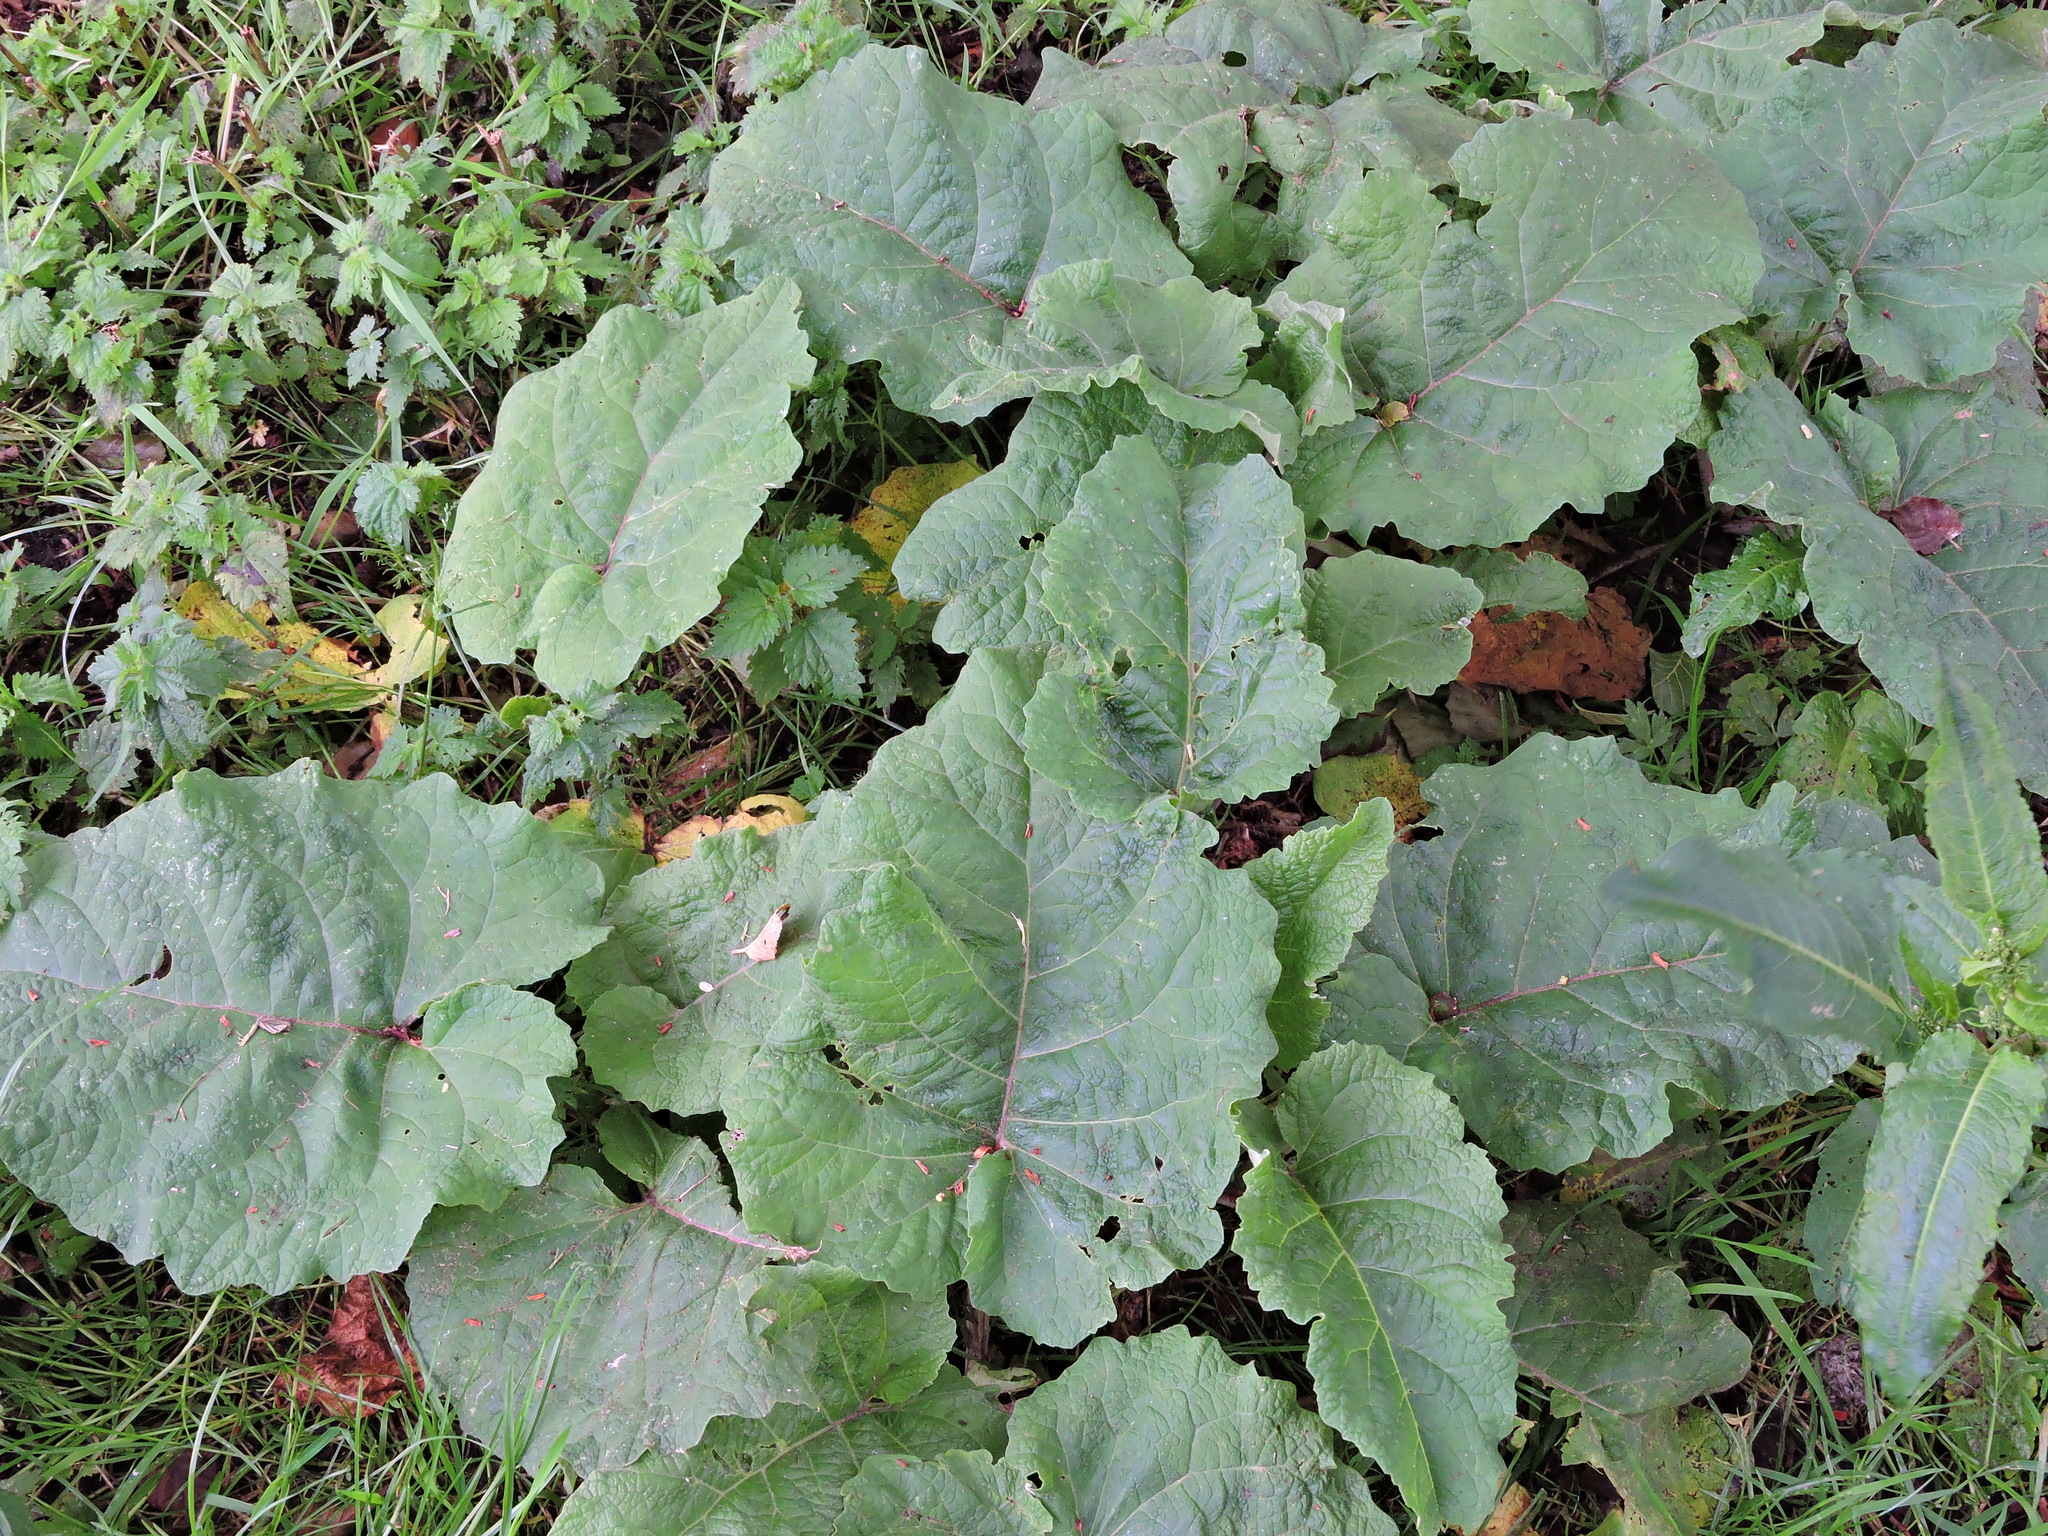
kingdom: Plantae
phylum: Tracheophyta
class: Magnoliopsida
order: Asterales
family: Asteraceae
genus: Arctium
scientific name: Arctium minus
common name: Lesser burdock
